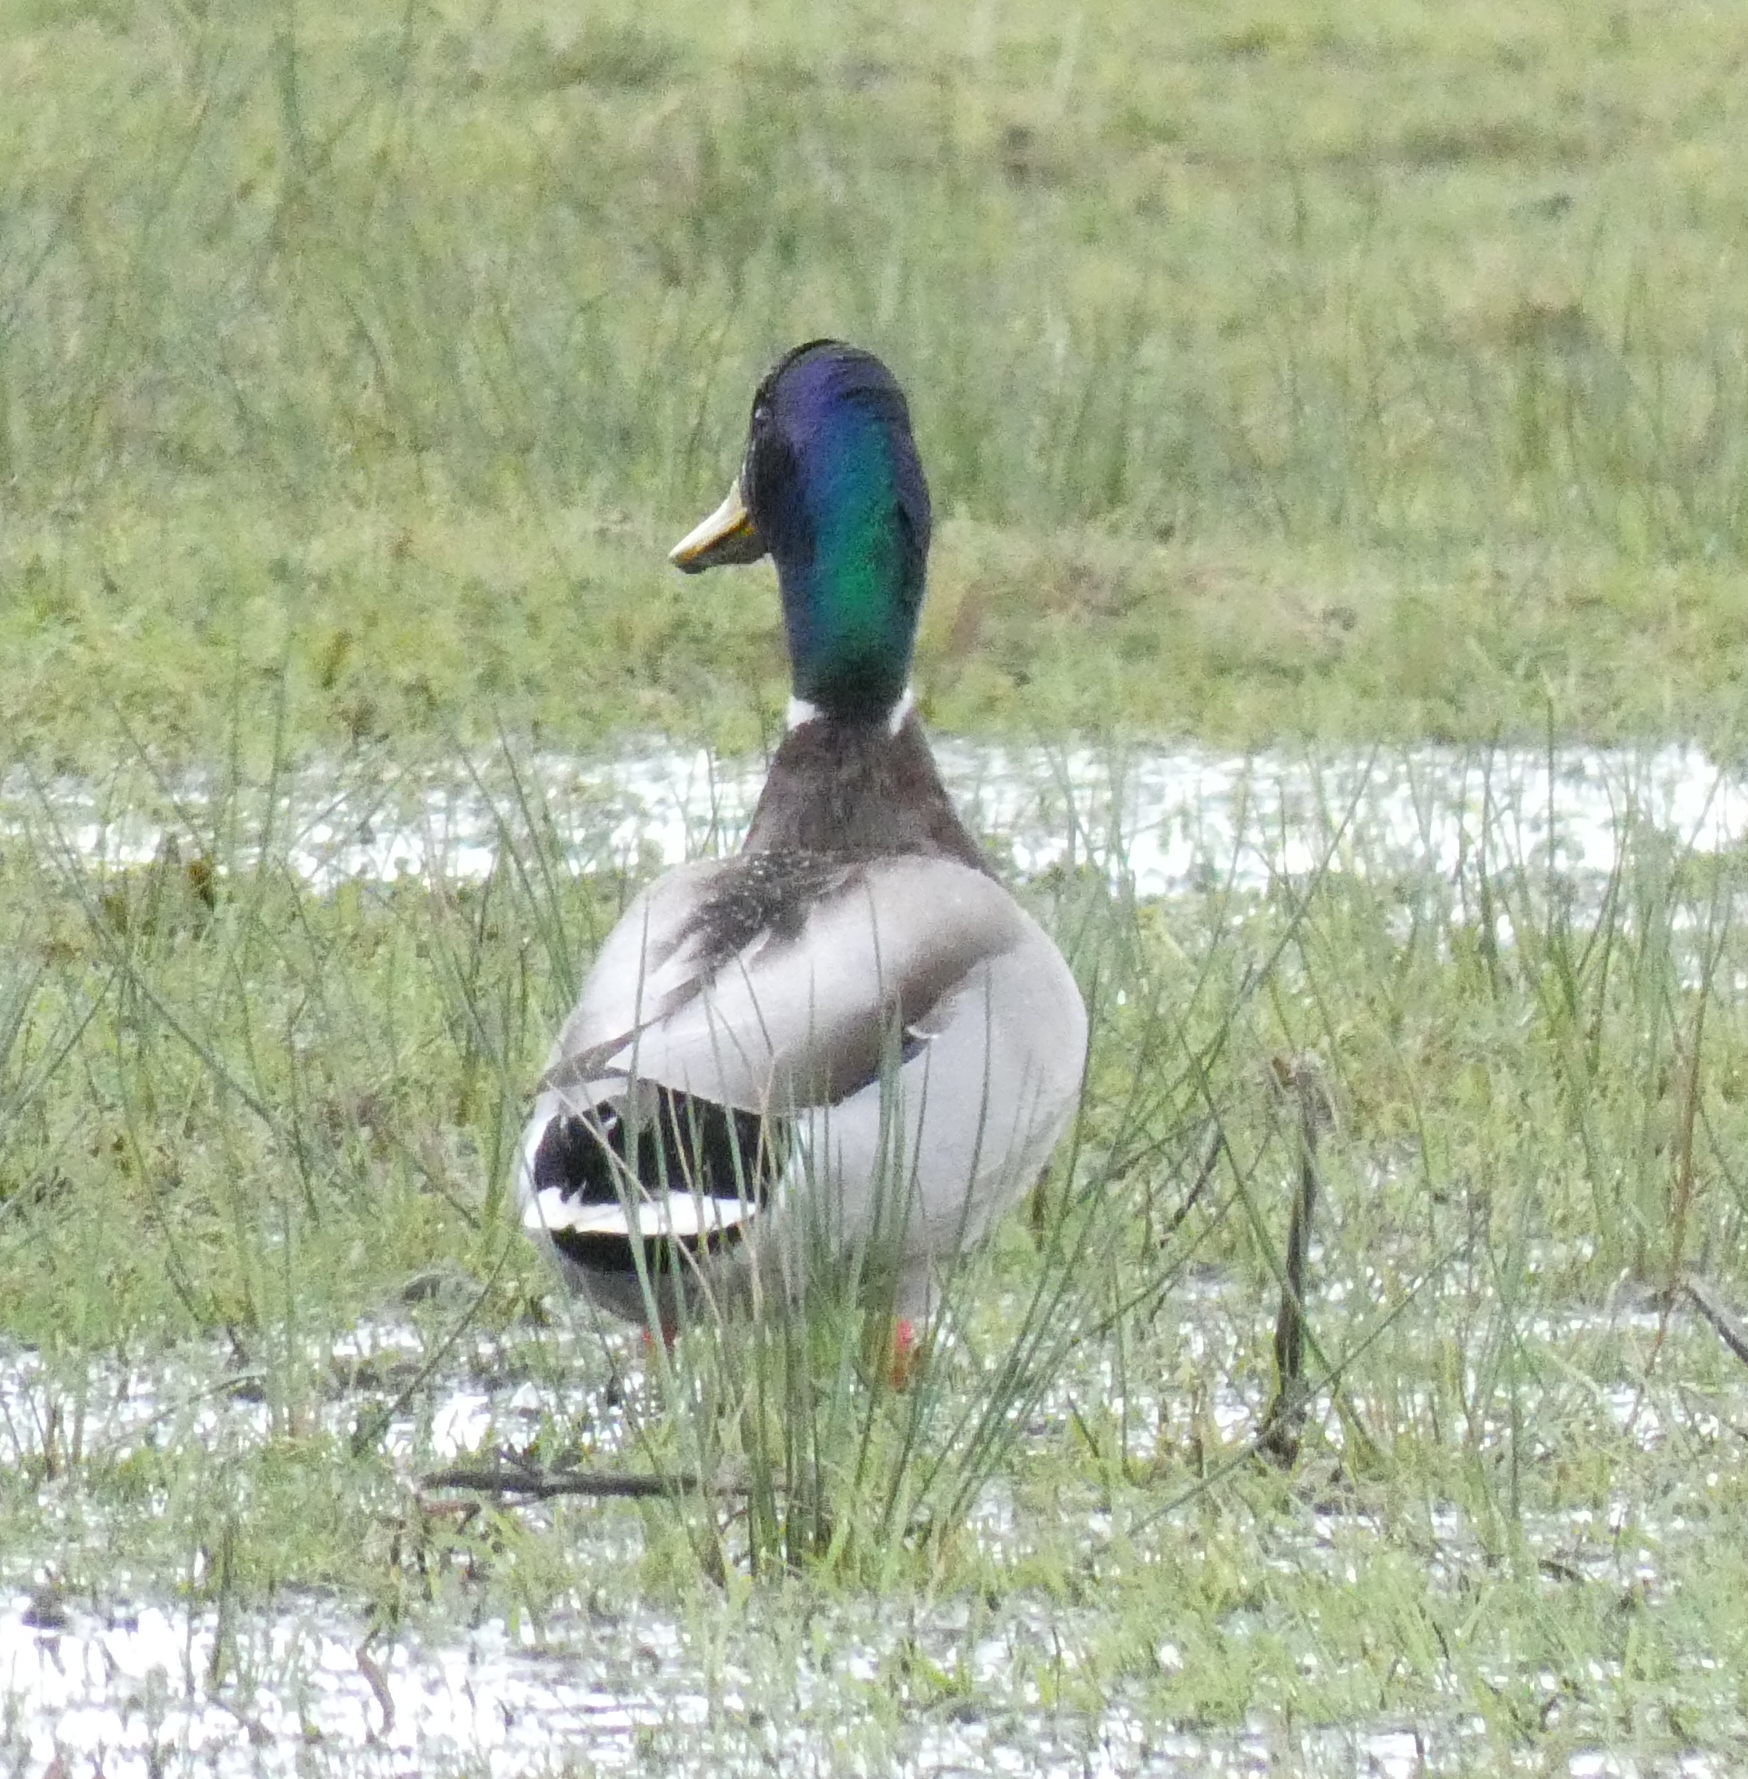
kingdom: Animalia
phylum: Chordata
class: Aves
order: Anseriformes
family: Anatidae
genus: Anas
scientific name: Anas platyrhynchos
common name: Mallard
